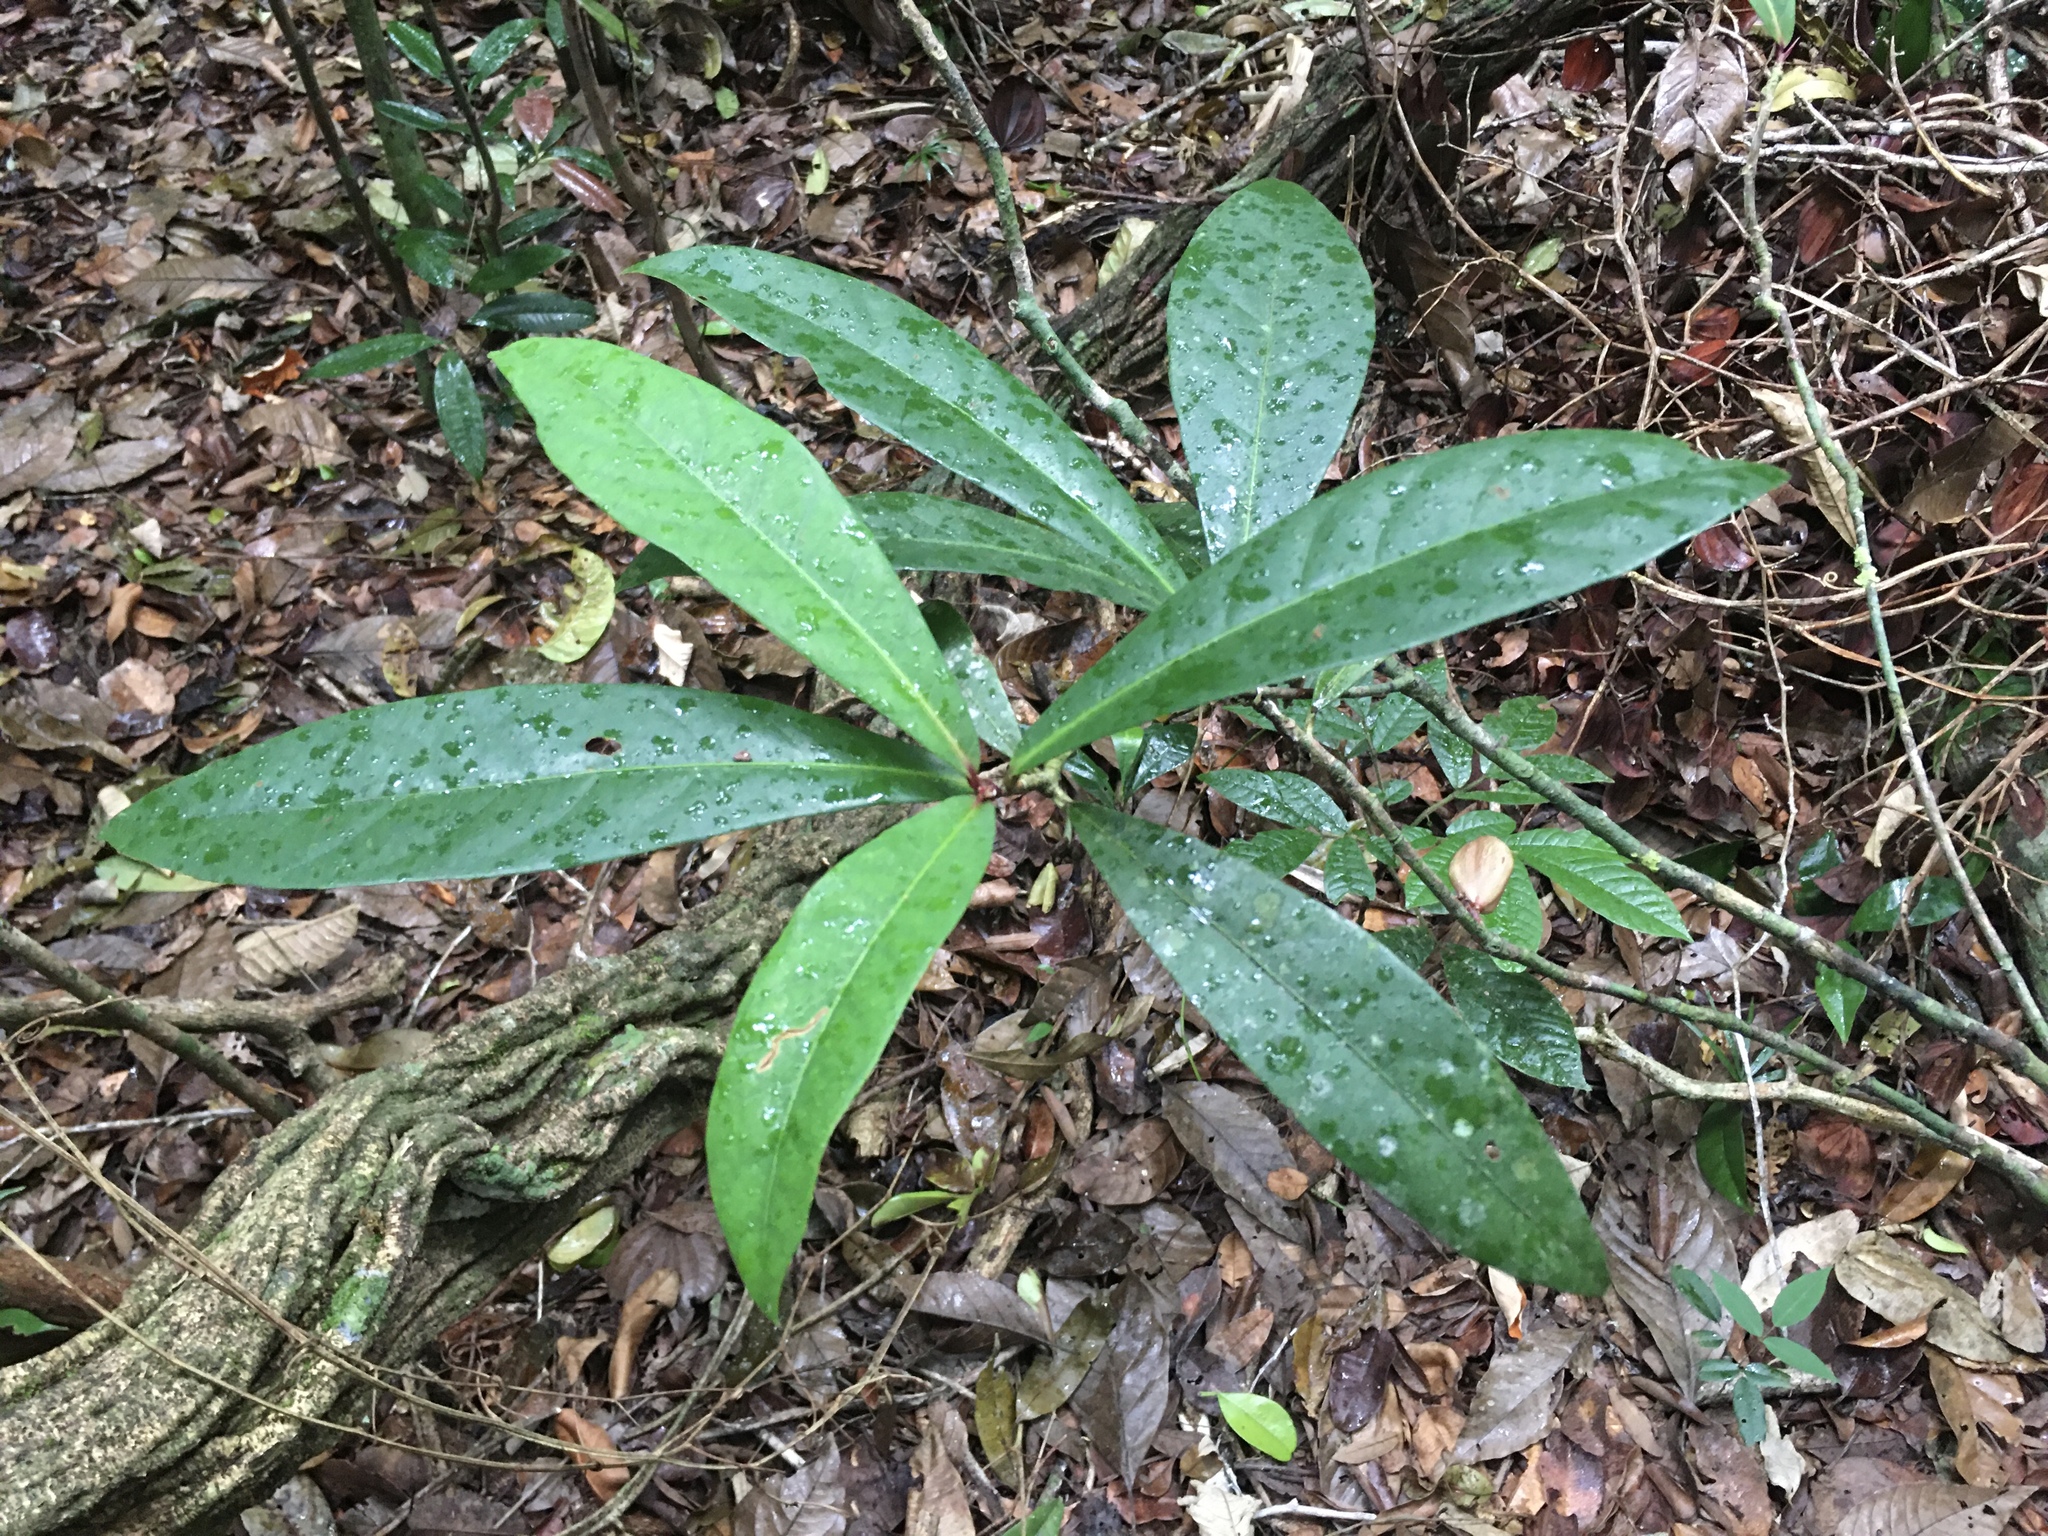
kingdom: Plantae
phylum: Tracheophyta
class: Magnoliopsida
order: Malpighiales
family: Violaceae
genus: Paypayrola
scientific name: Paypayrola blanchetiana
